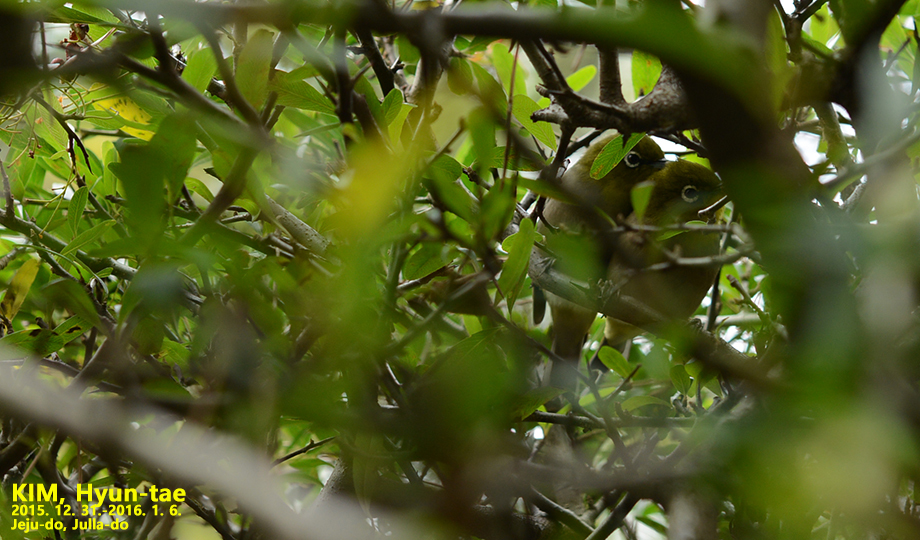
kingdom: Animalia
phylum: Chordata
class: Aves
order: Passeriformes
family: Zosteropidae
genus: Zosterops
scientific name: Zosterops japonicus
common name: Japanese white-eye
